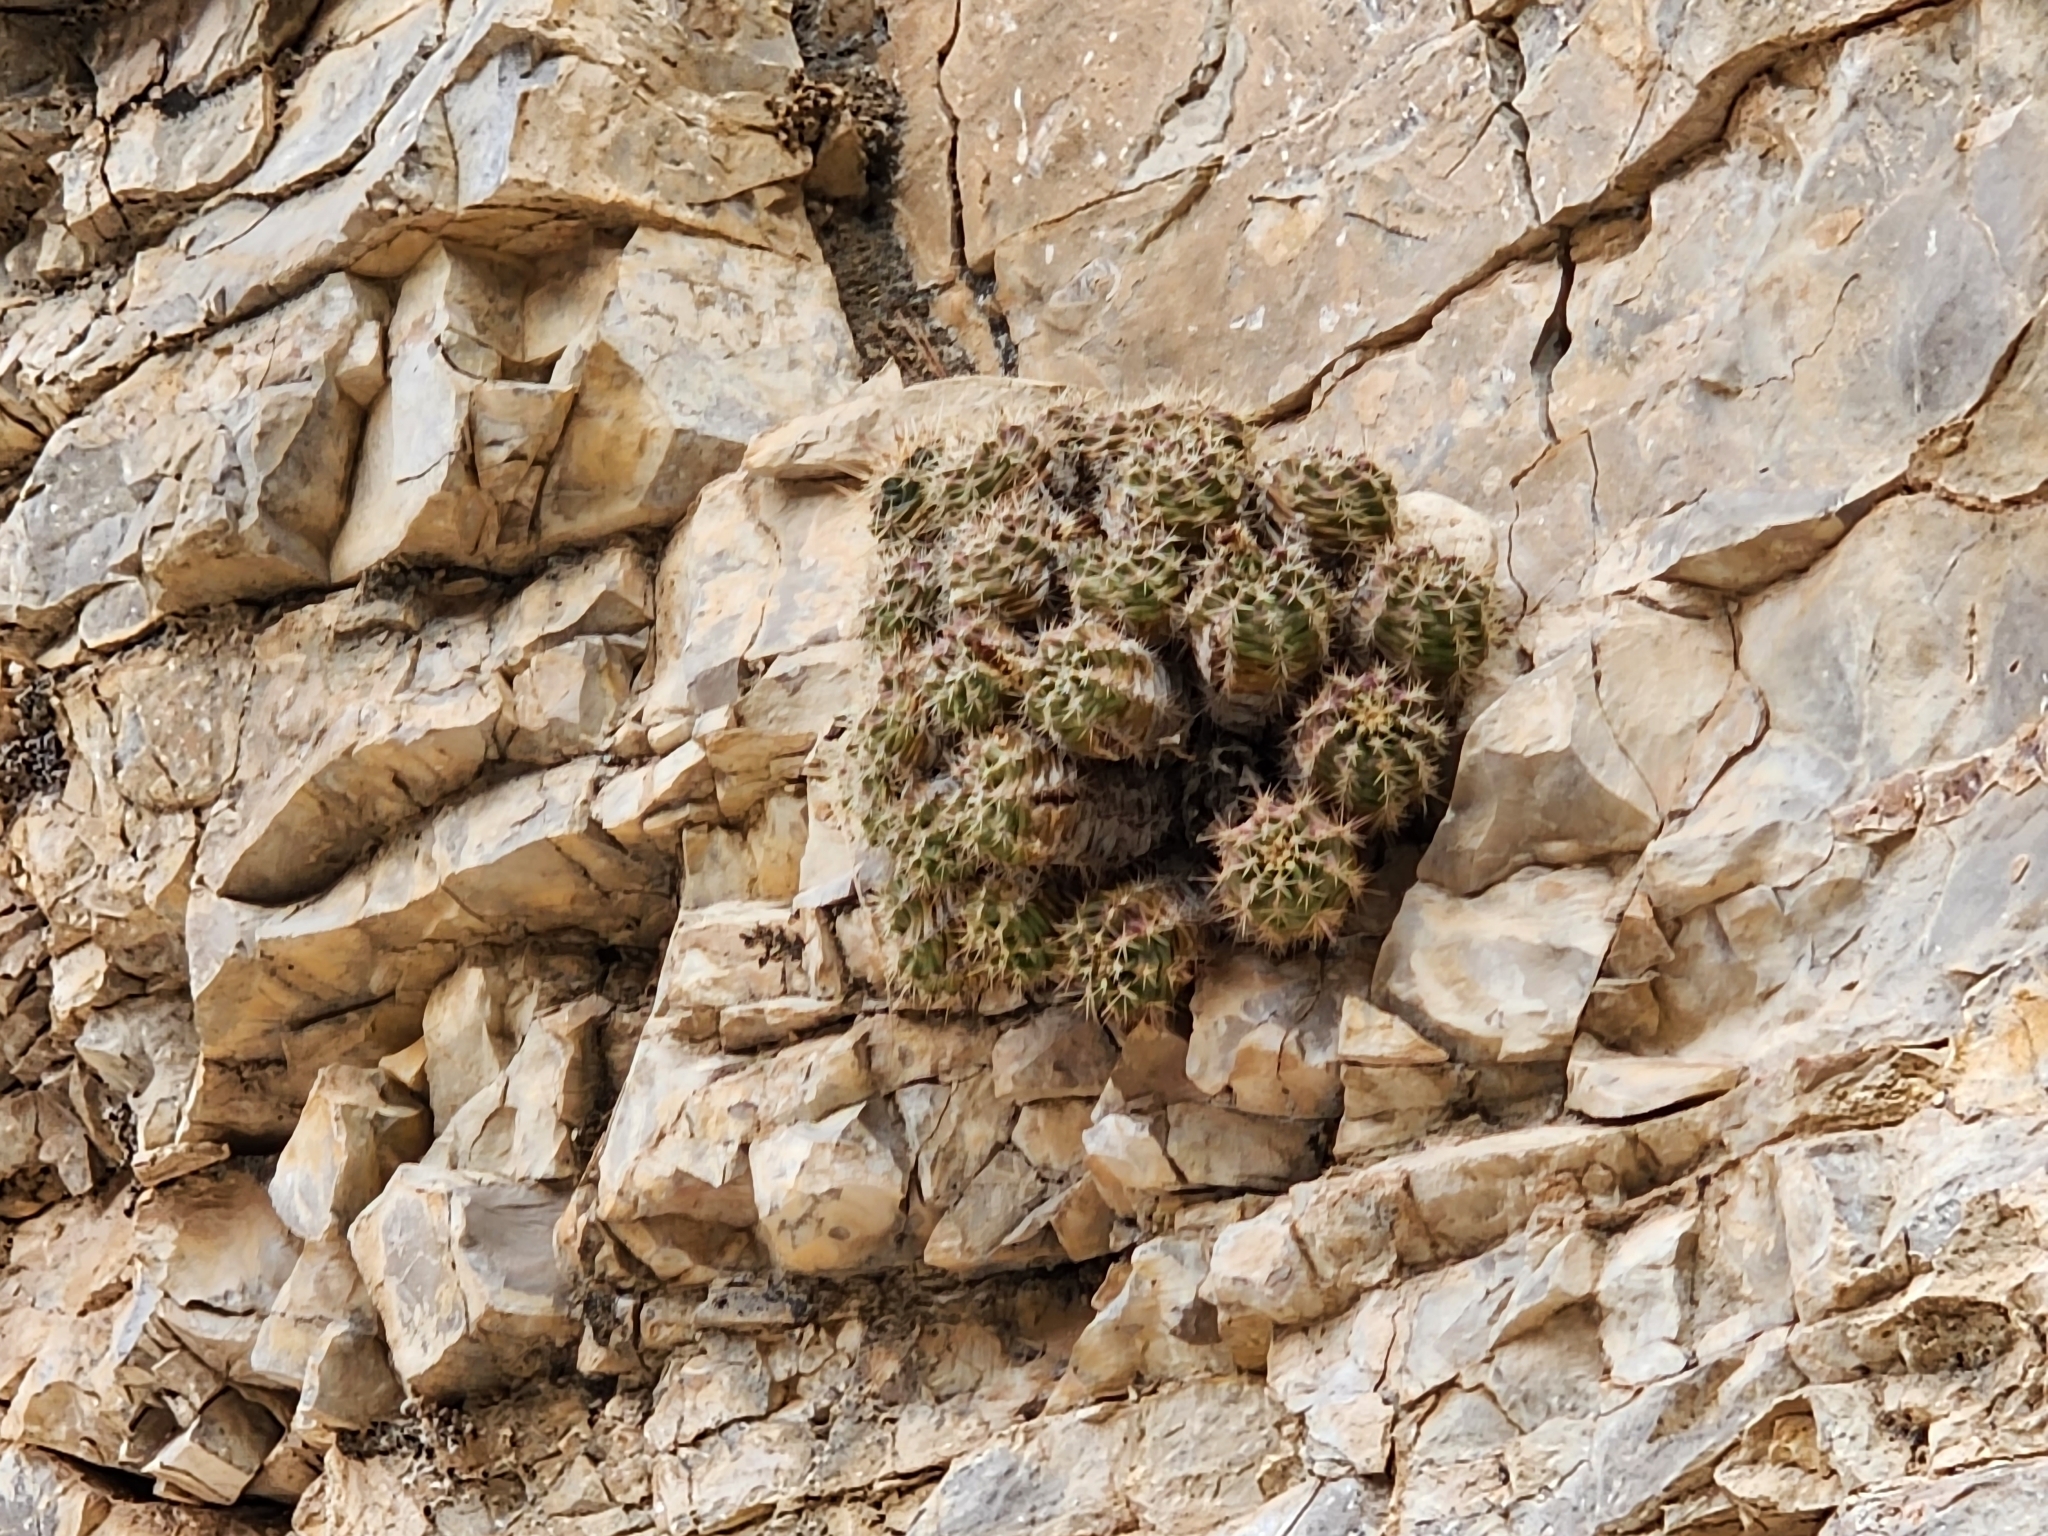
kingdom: Plantae
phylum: Tracheophyta
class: Magnoliopsida
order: Caryophyllales
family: Cactaceae
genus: Echinocereus
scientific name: Echinocereus coccineus
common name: Scarlet hedgehog cactus
